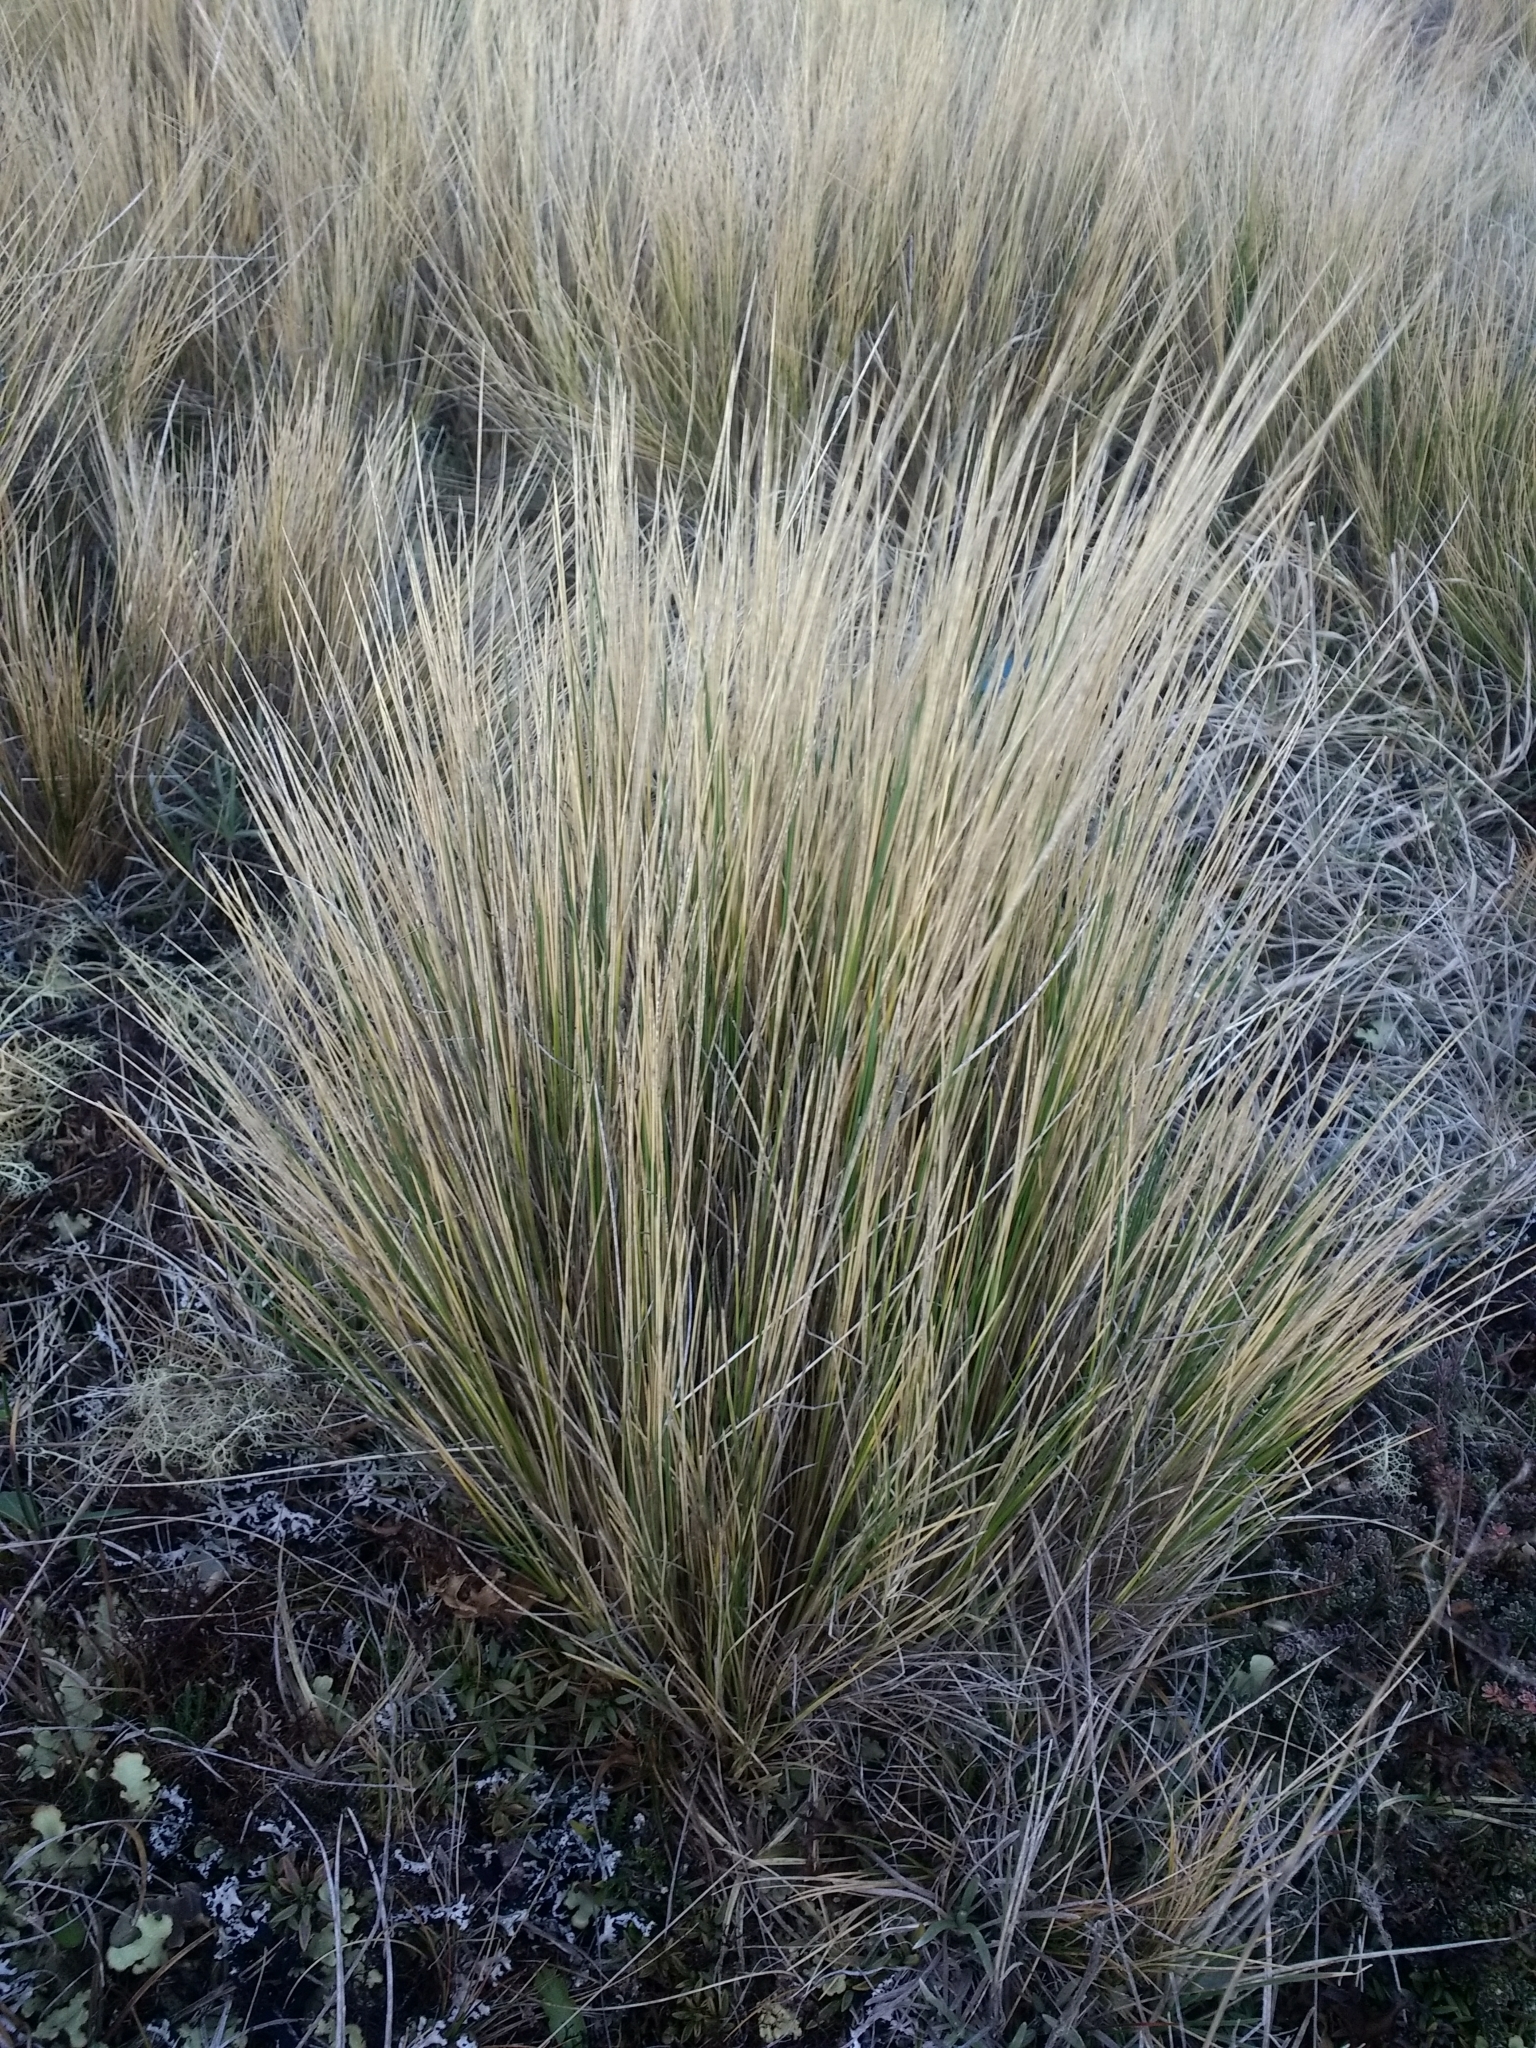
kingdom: Plantae
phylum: Tracheophyta
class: Liliopsida
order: Poales
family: Poaceae
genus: Festuca
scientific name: Festuca gracillima
